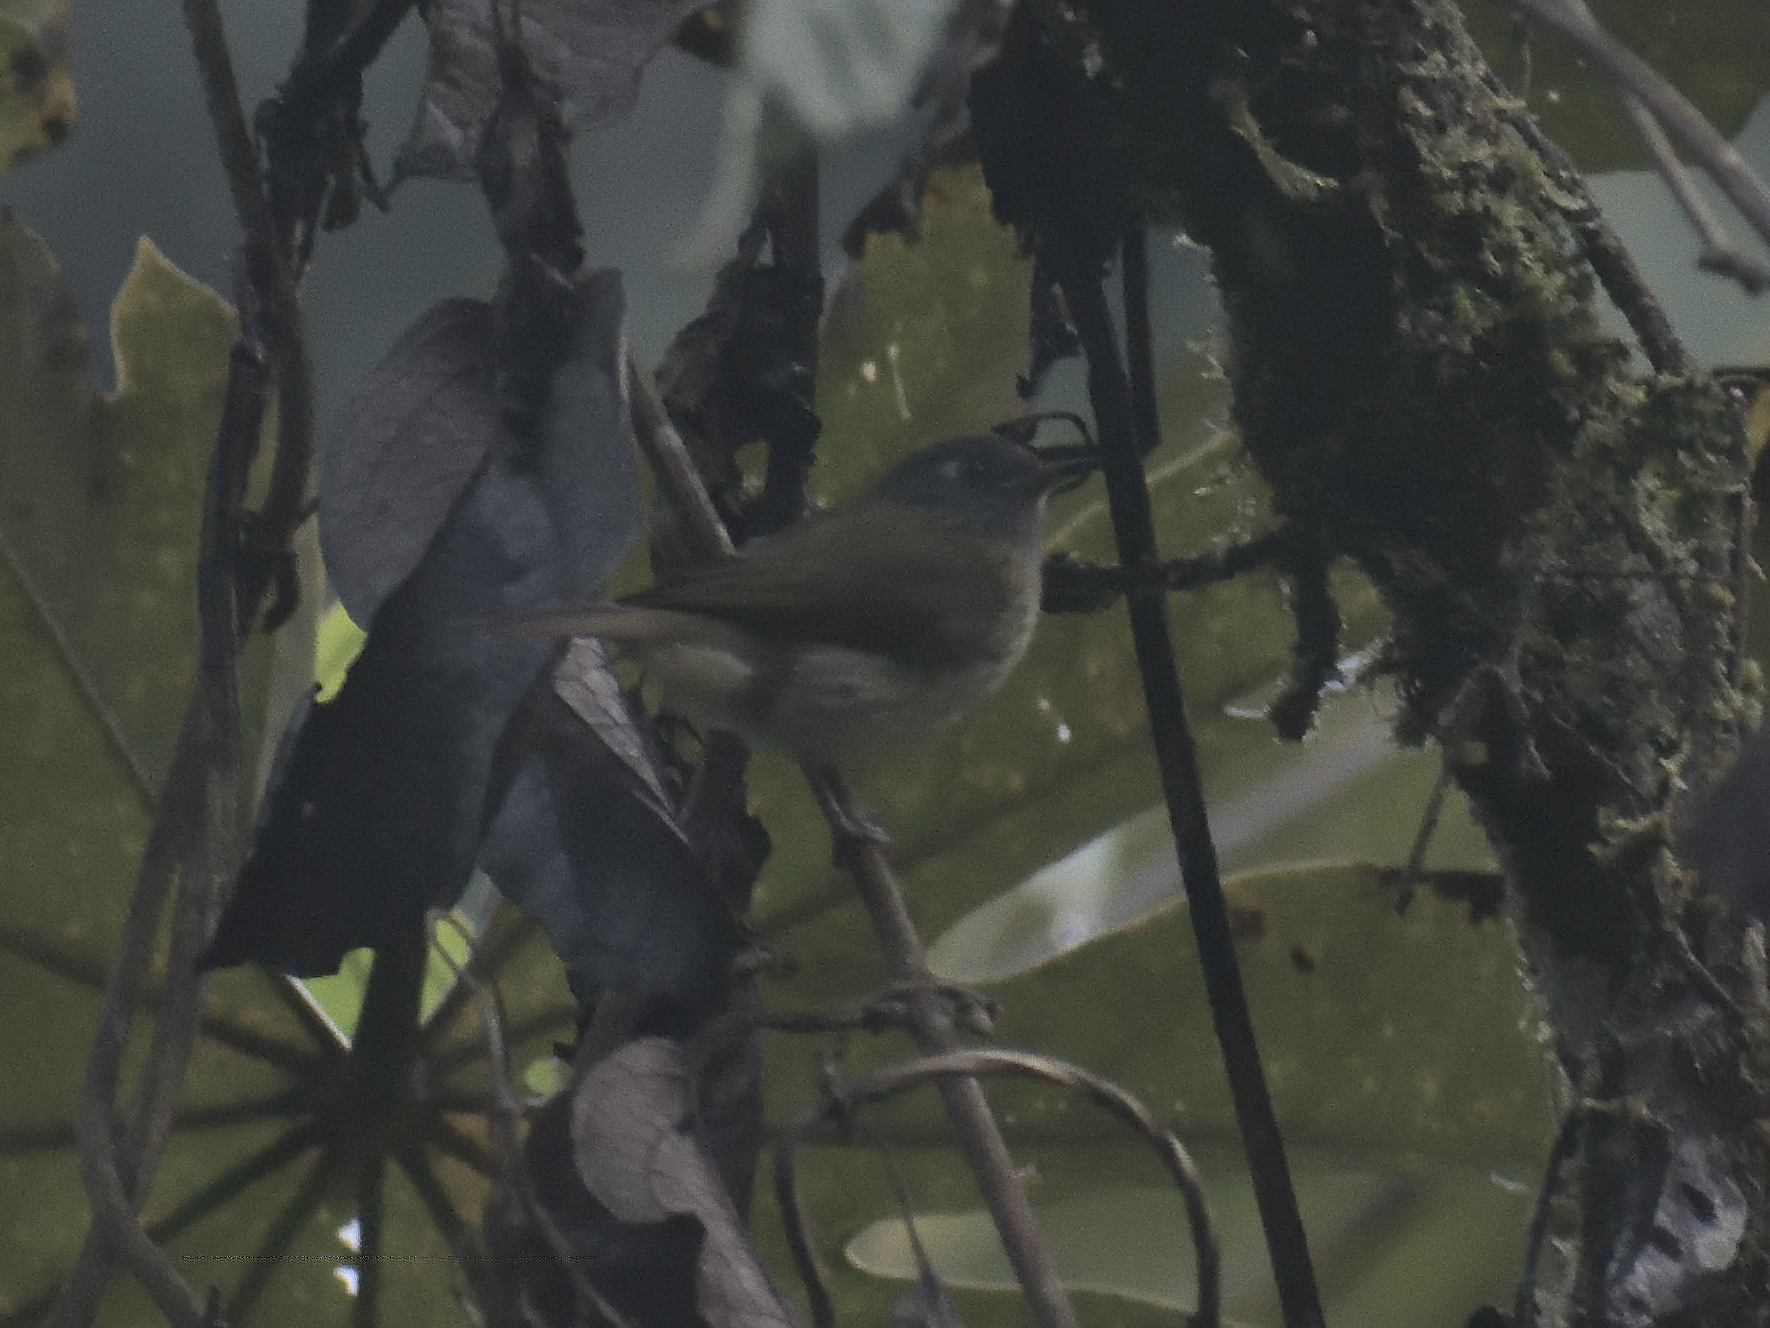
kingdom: Animalia
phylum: Chordata
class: Aves
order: Passeriformes
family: Passerellidae
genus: Chlorospingus
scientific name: Chlorospingus flavopectus
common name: Common chlorospingus
